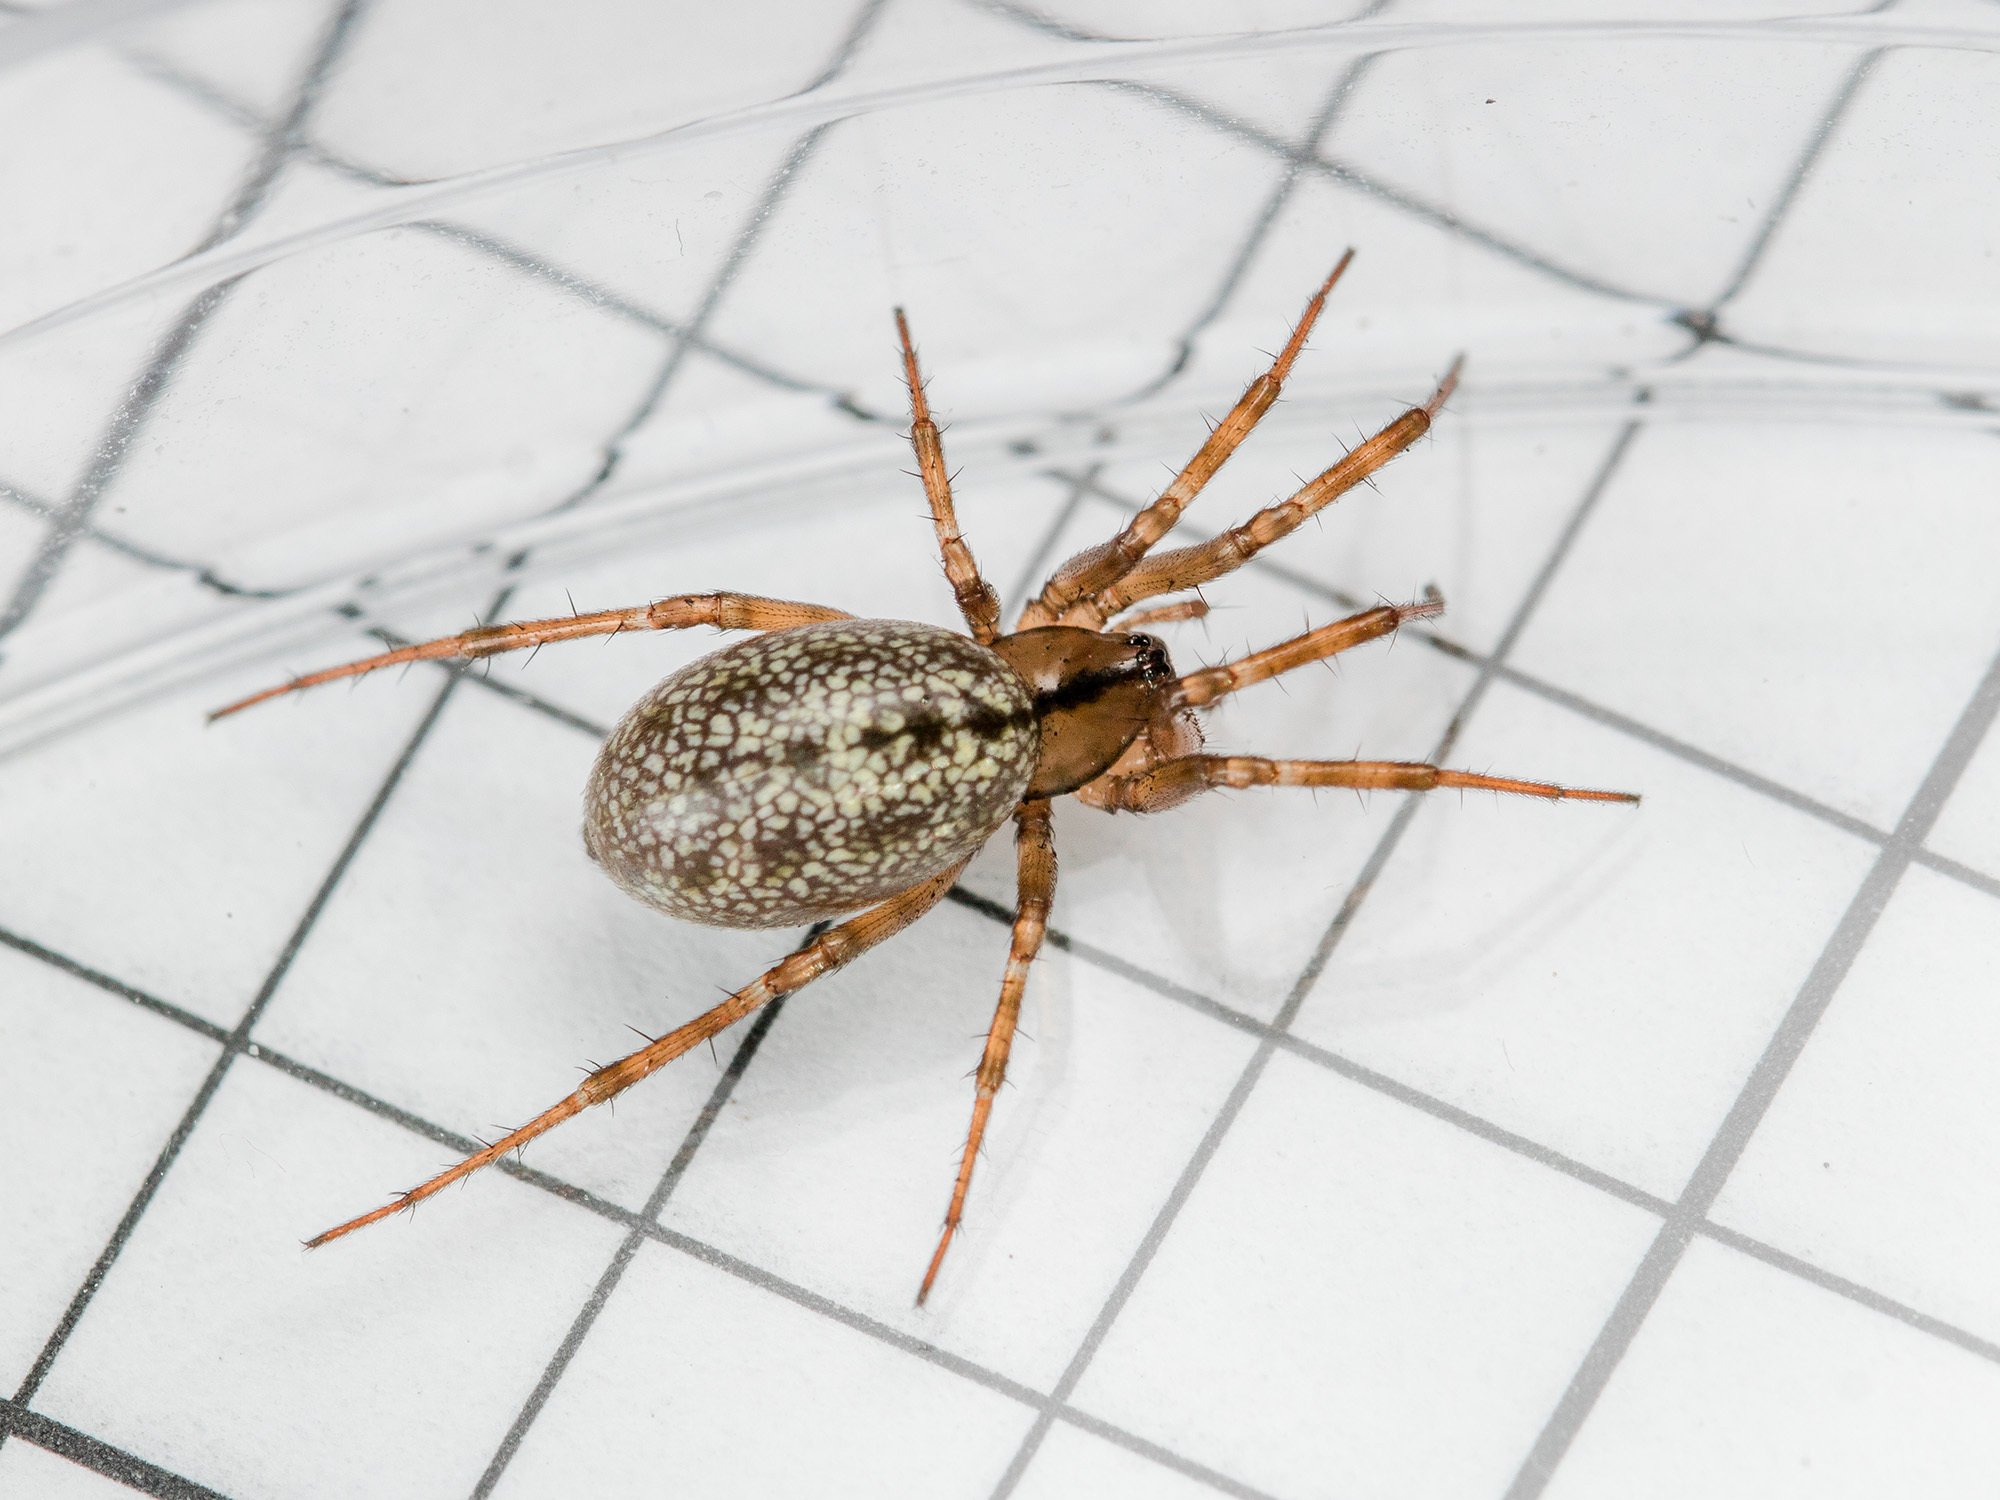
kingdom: Animalia
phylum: Arthropoda
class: Arachnida
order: Araneae
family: Linyphiidae
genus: Stemonyphantes
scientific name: Stemonyphantes lineatus
